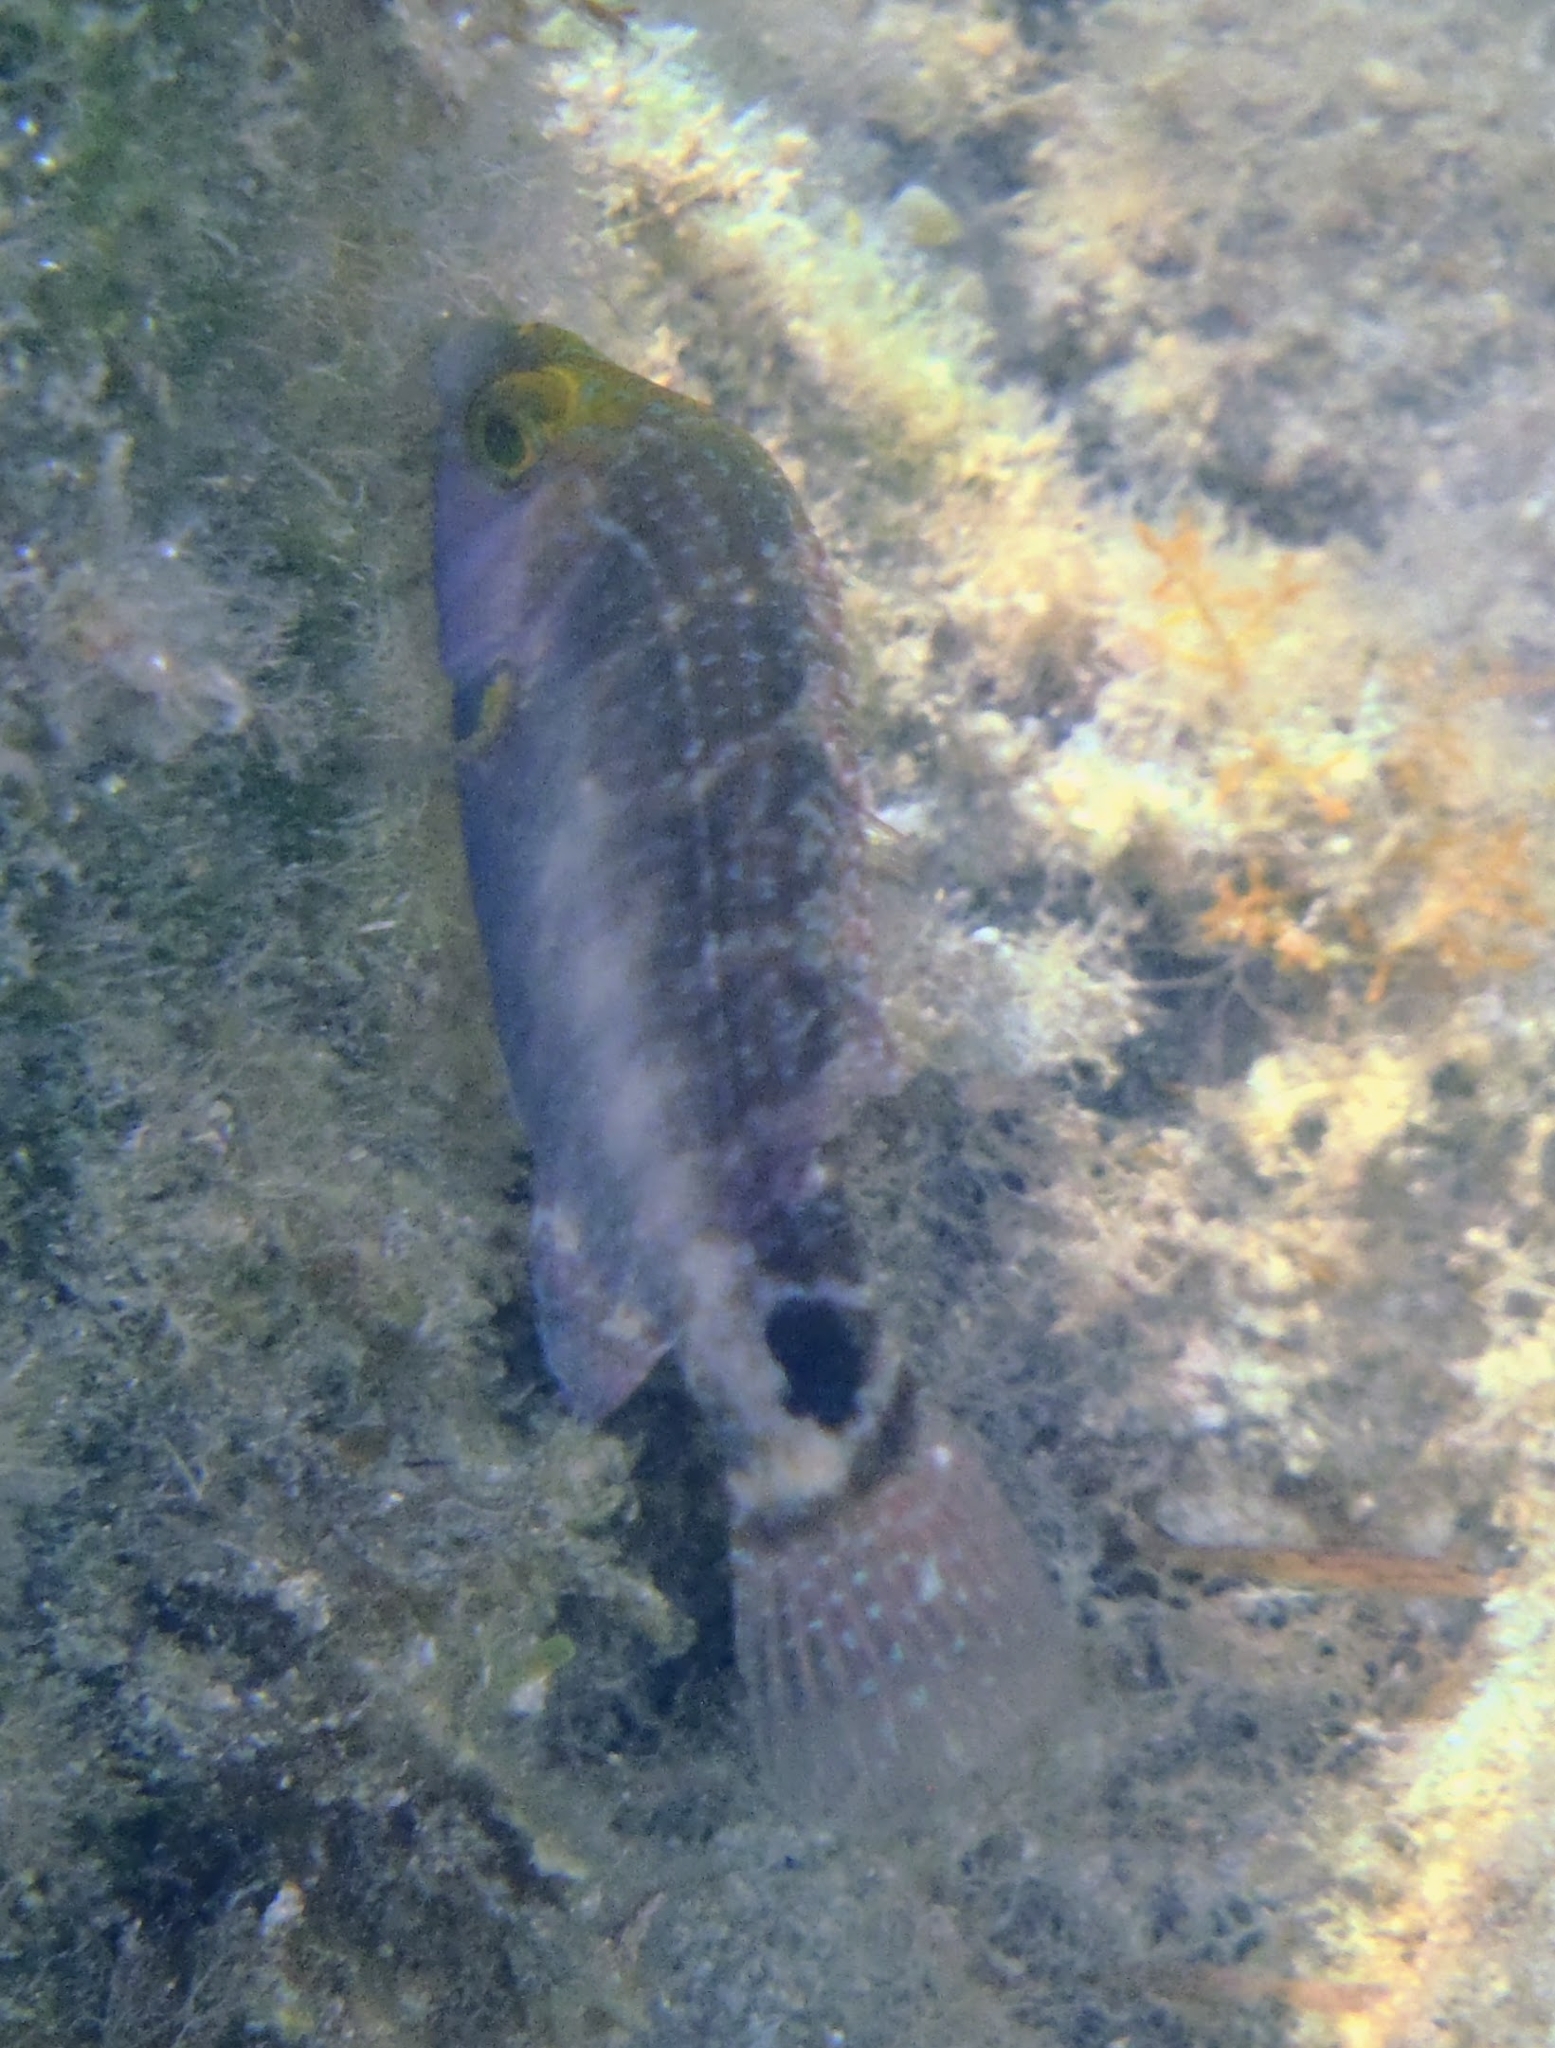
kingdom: Animalia
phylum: Chordata
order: Perciformes
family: Labridae
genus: Symphodus
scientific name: Symphodus mediterraneus
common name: Axillary wrasse
